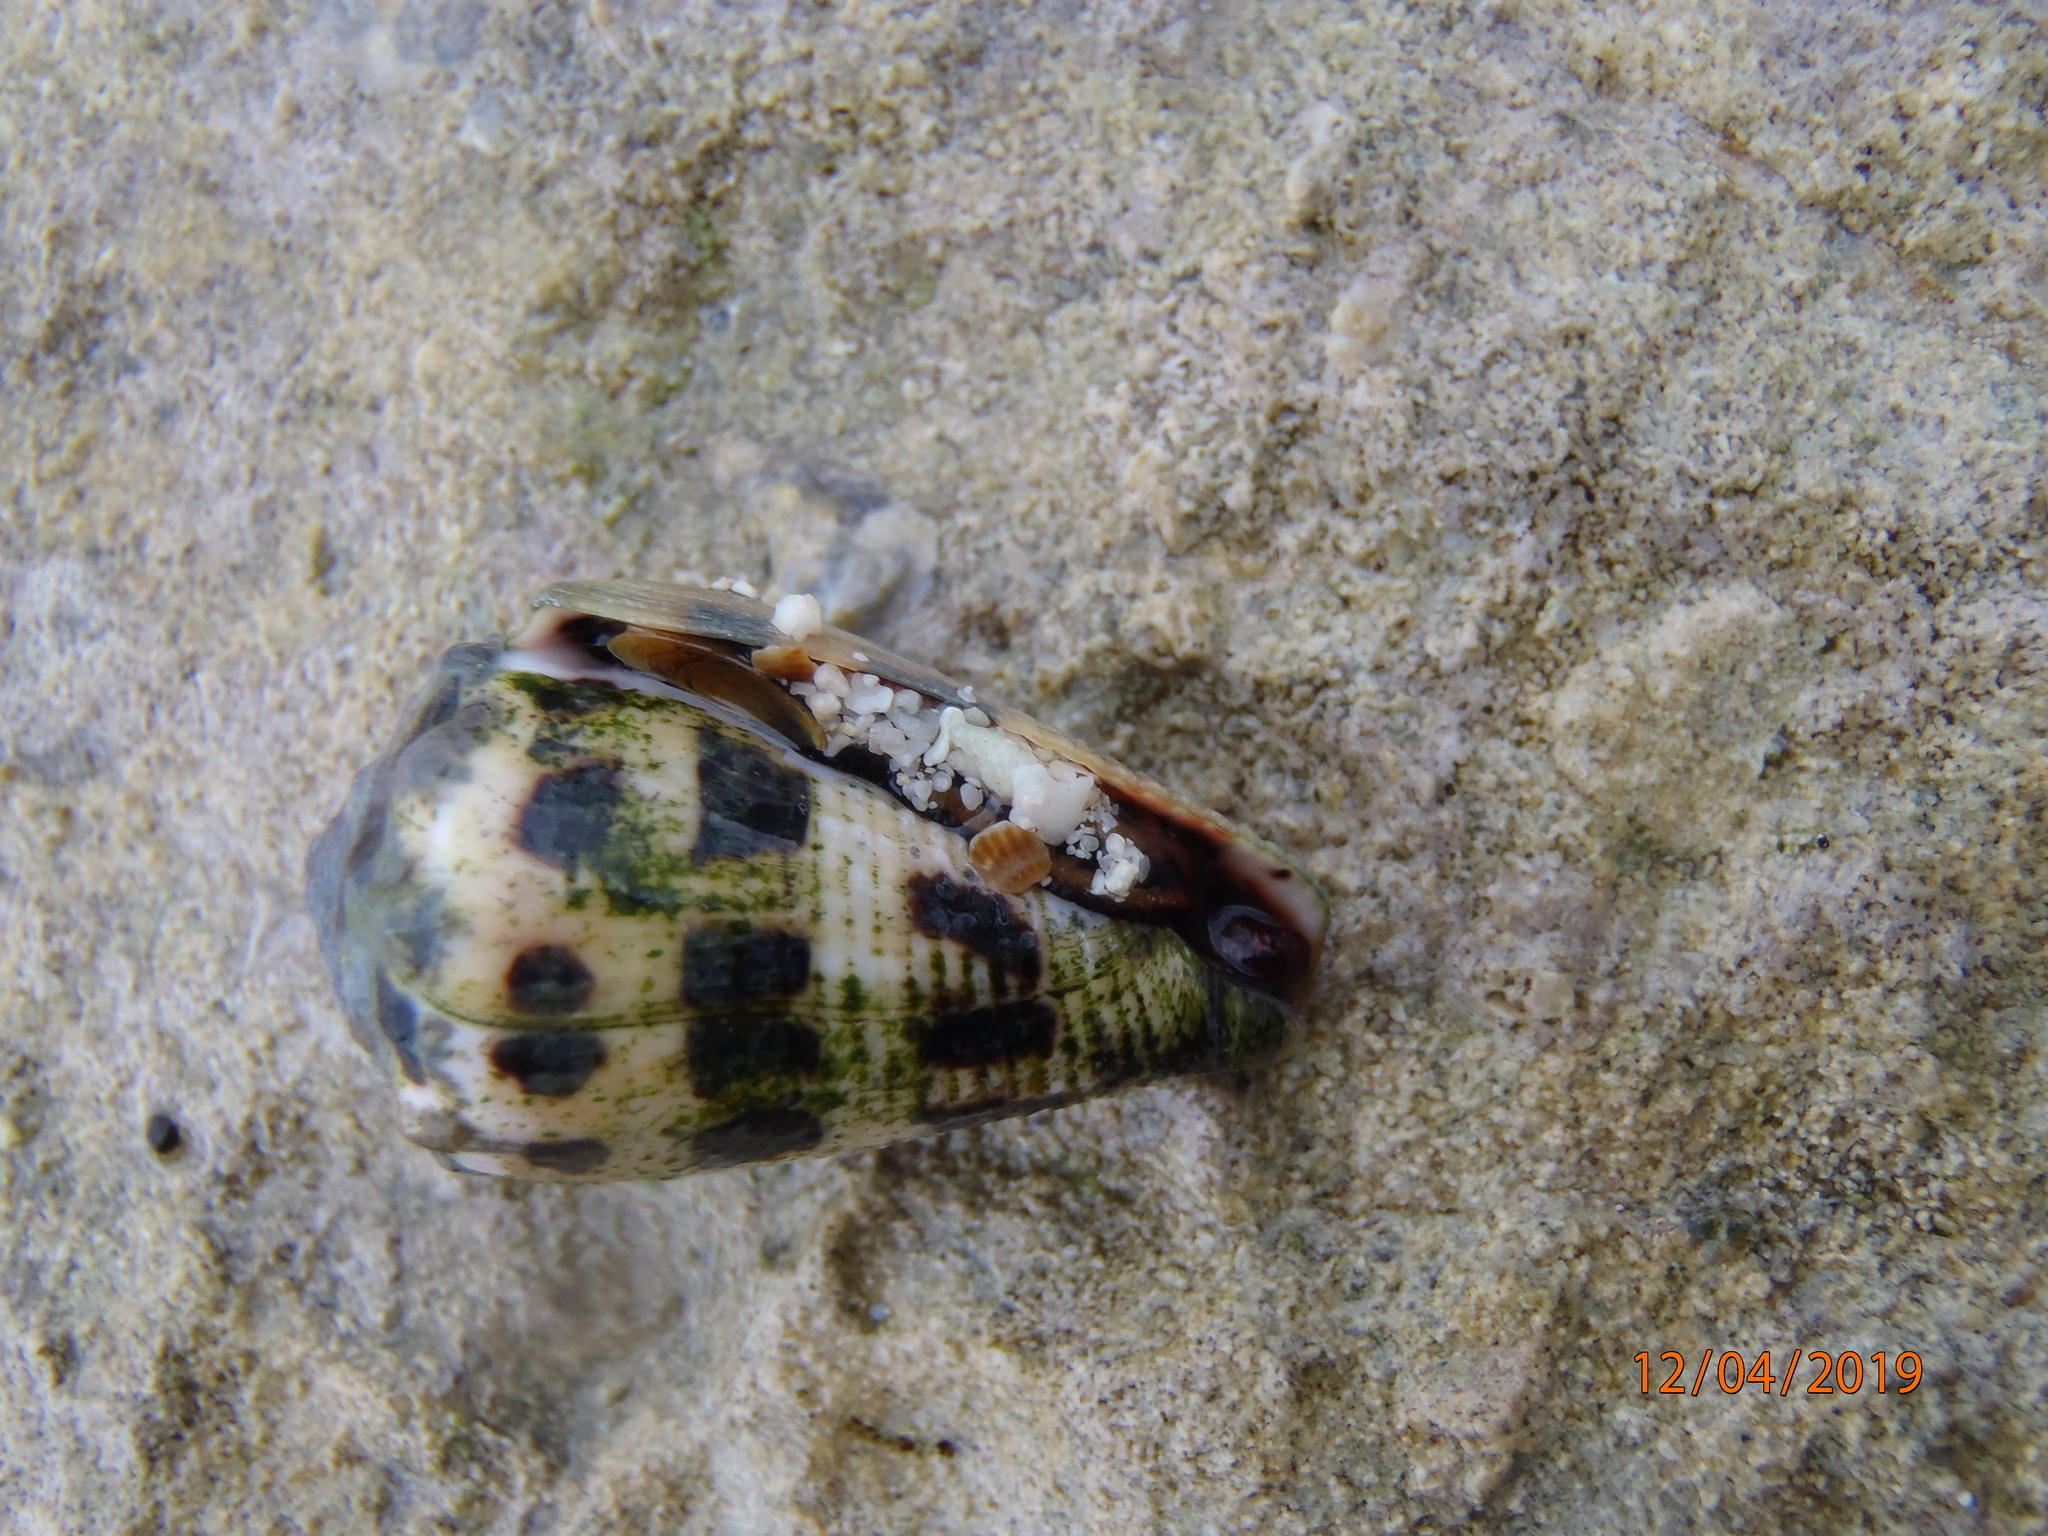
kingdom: Animalia
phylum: Mollusca
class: Gastropoda
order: Neogastropoda
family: Conidae
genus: Conus
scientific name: Conus ebraeus
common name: Hebrew cone
